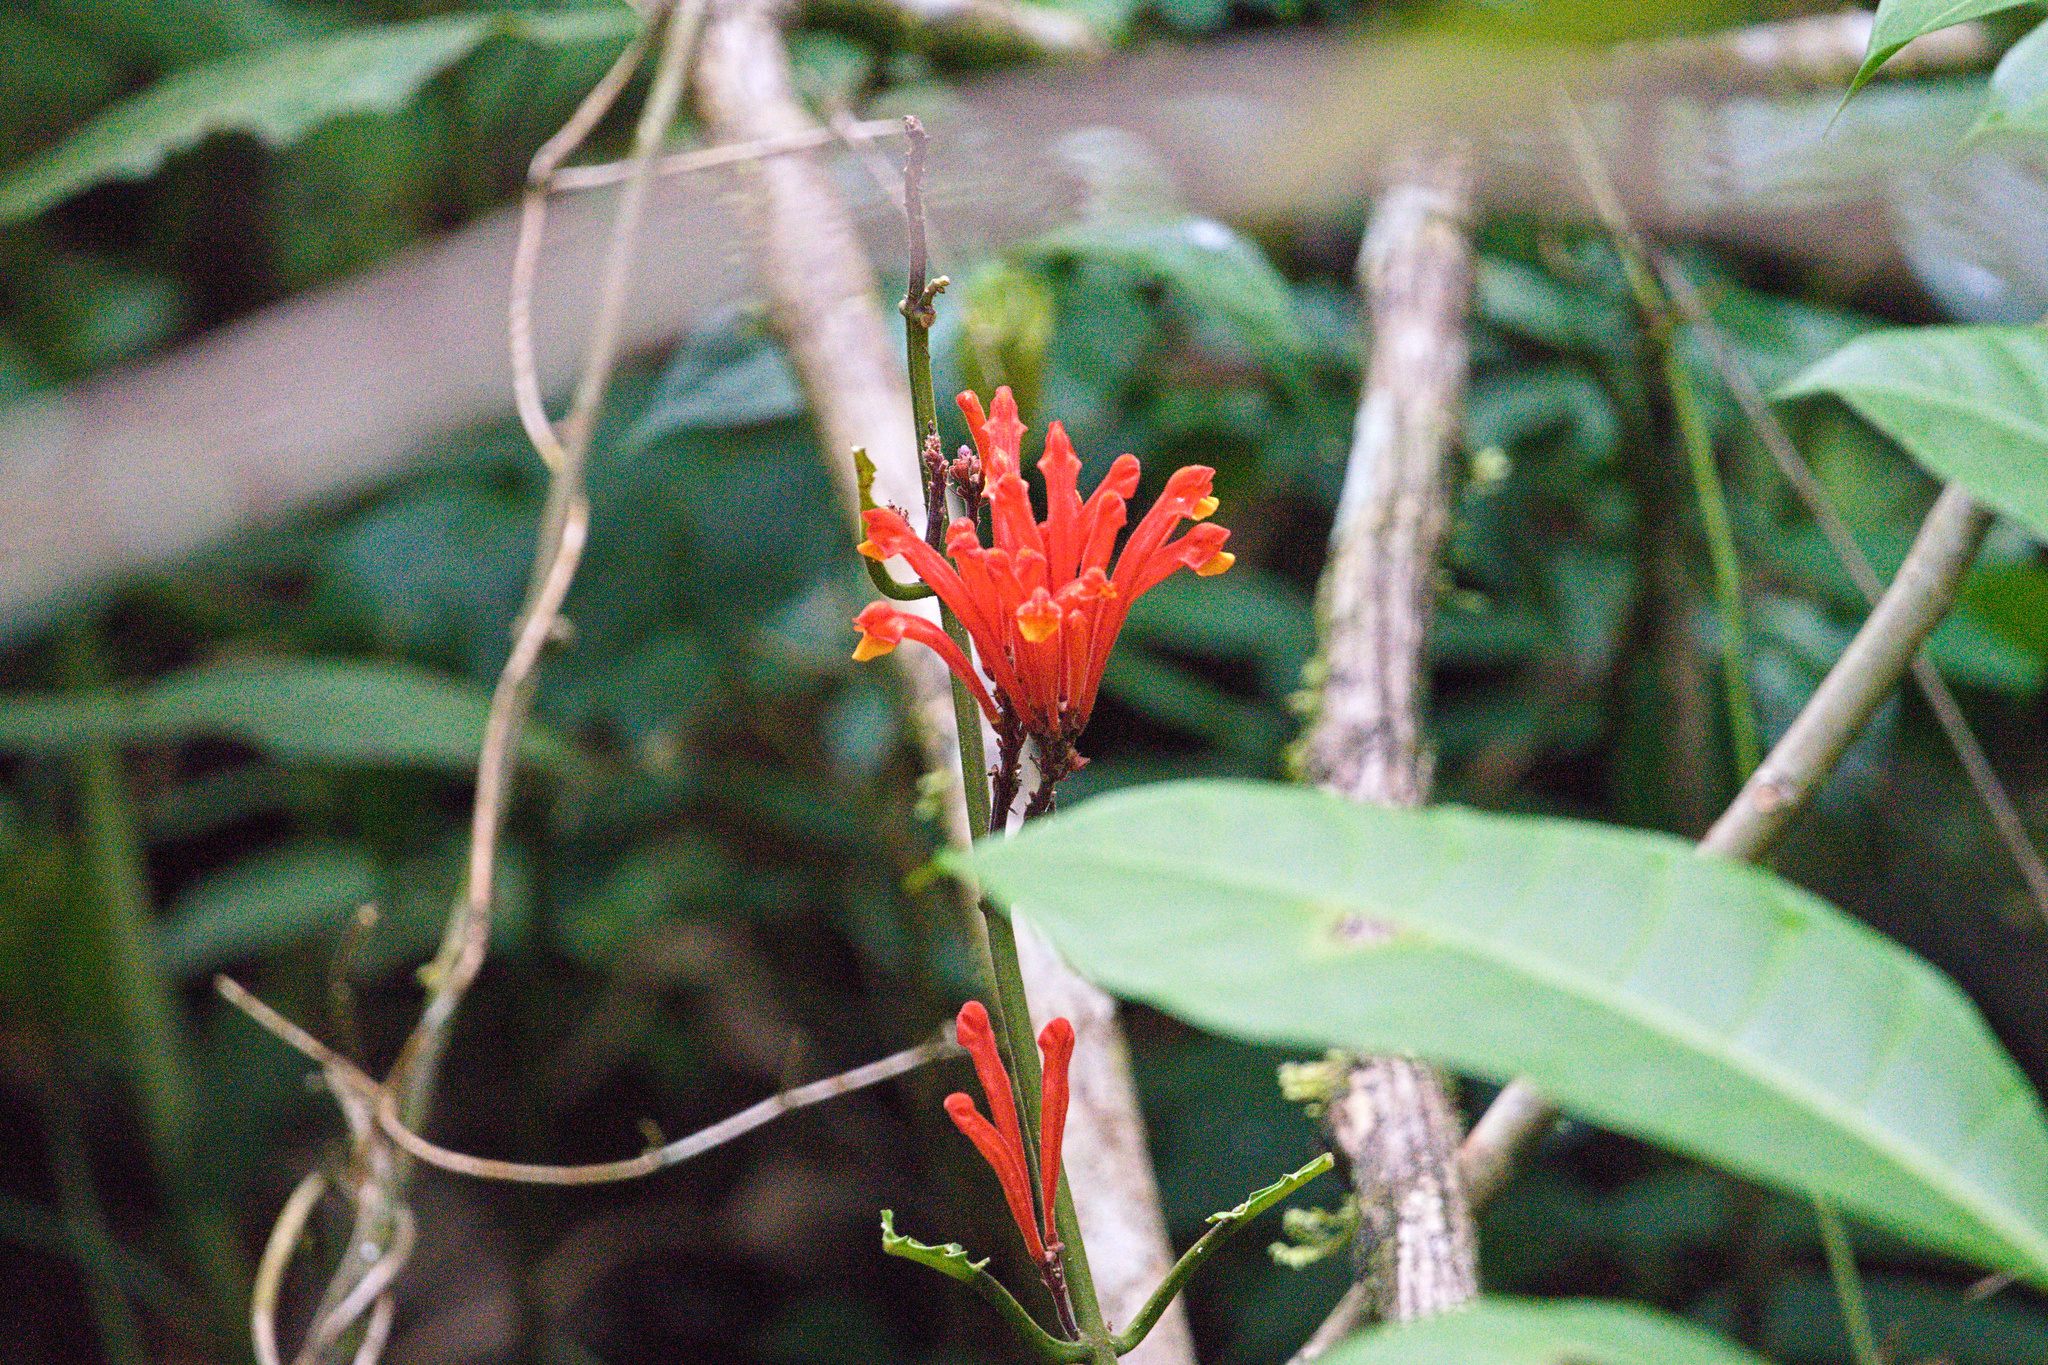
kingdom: Plantae
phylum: Tracheophyta
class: Magnoliopsida
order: Lamiales
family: Lamiaceae
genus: Scutellaria
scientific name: Scutellaria costaricana
